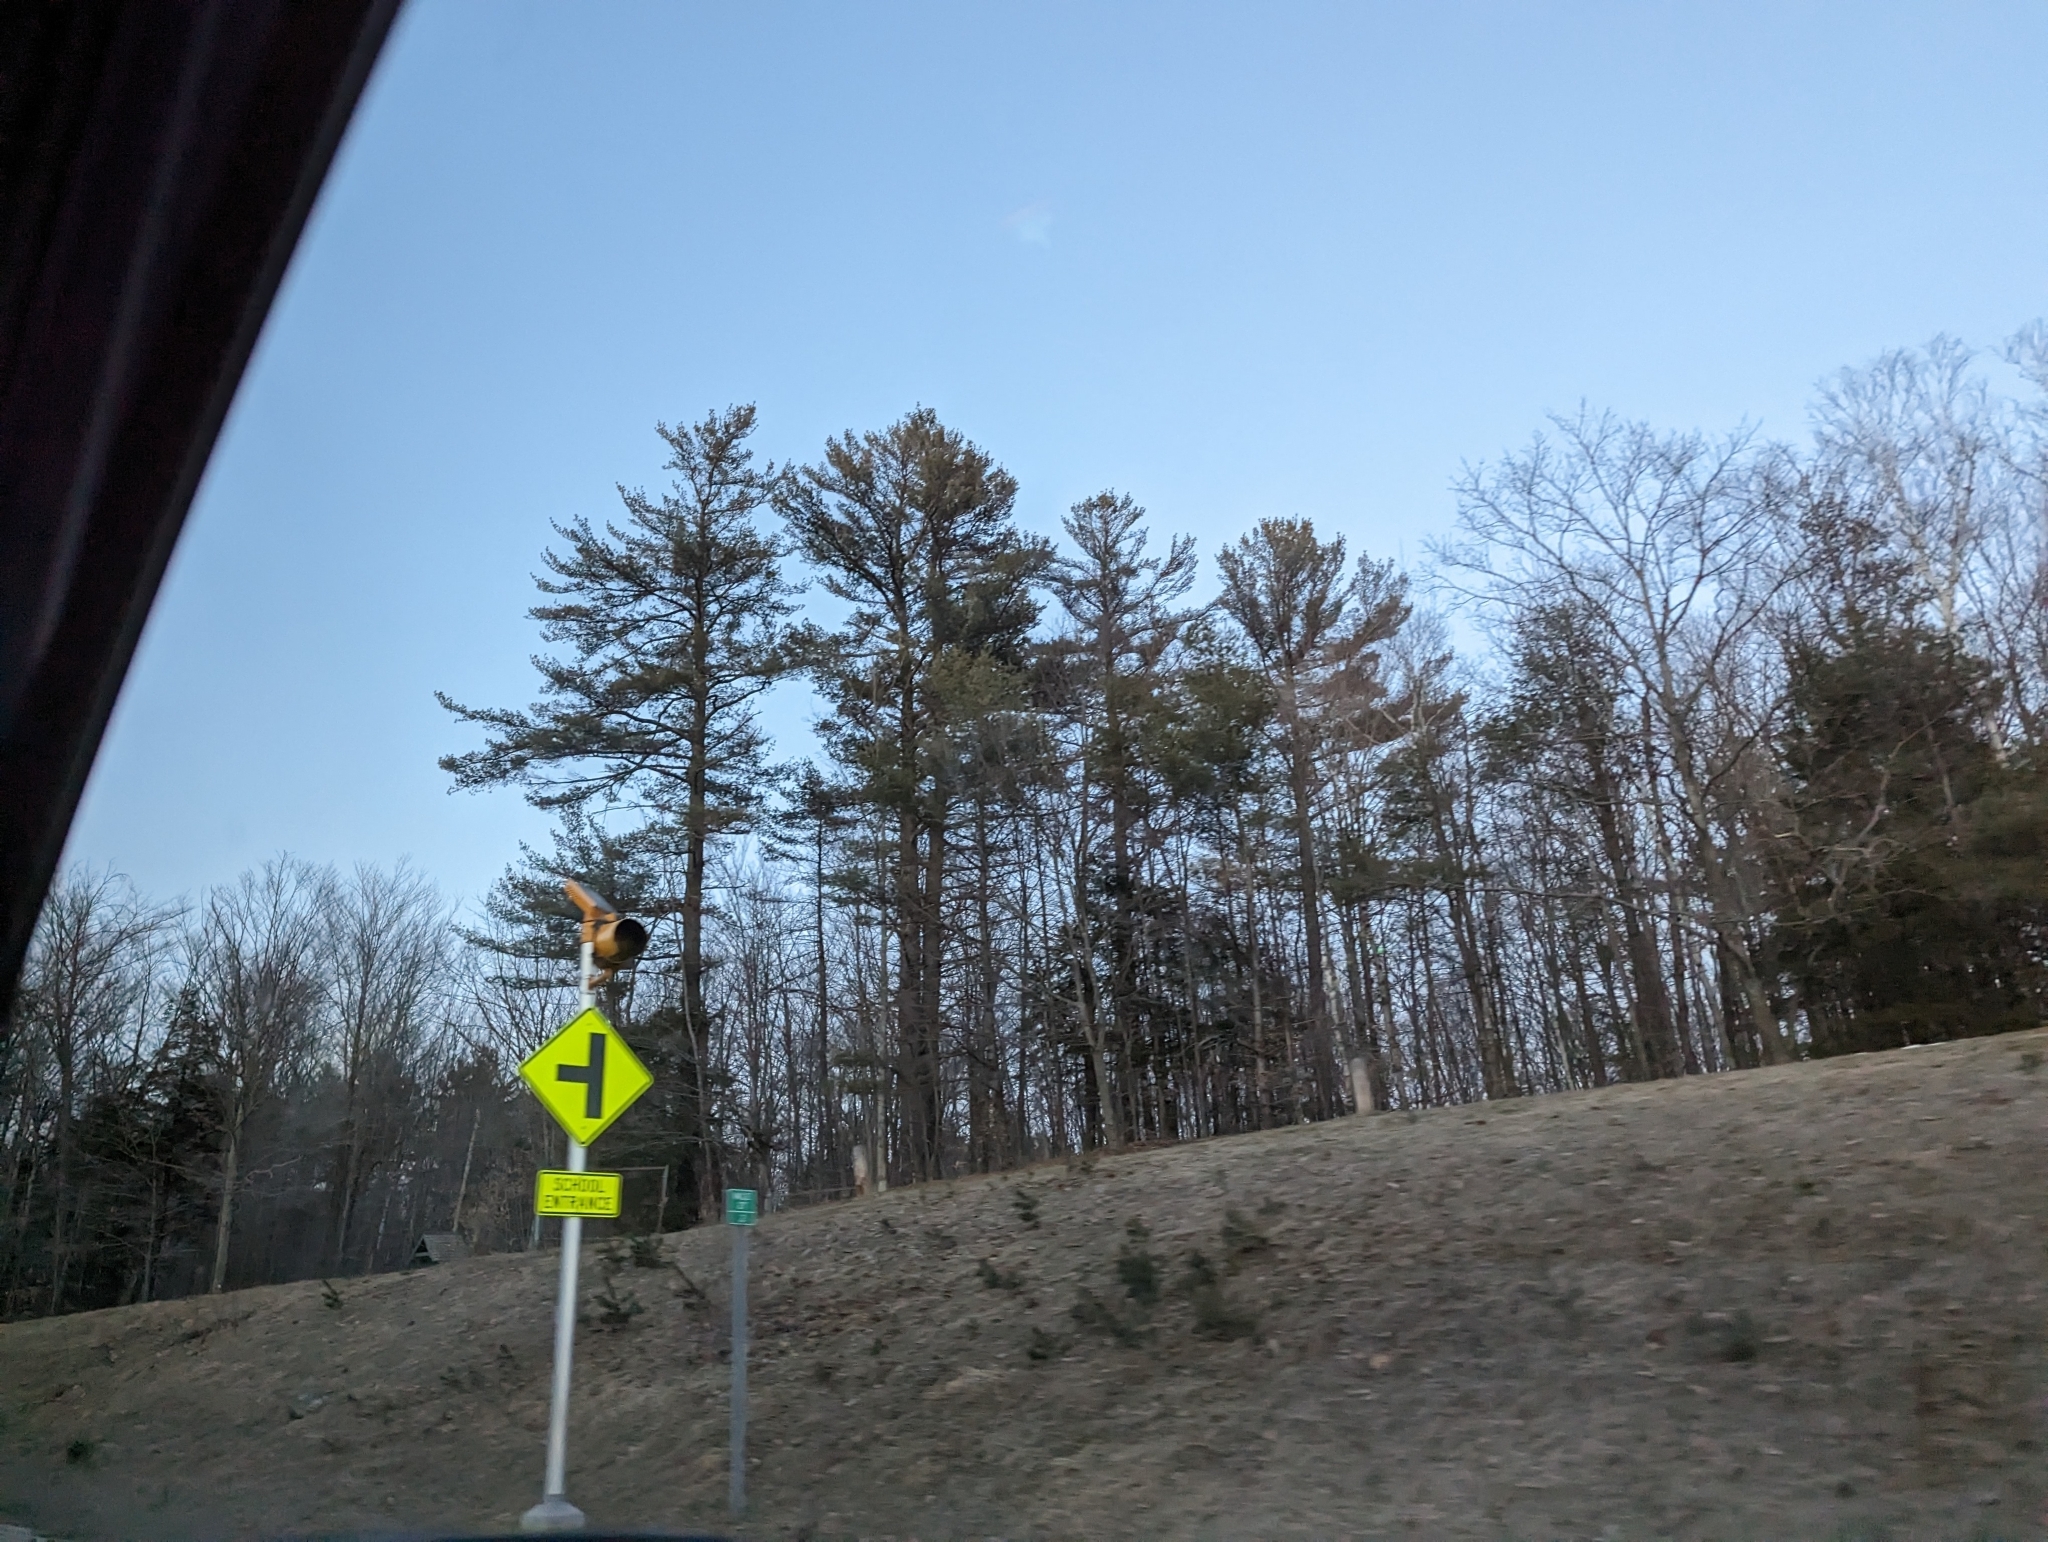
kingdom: Plantae
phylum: Tracheophyta
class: Pinopsida
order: Pinales
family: Pinaceae
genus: Pinus
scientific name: Pinus strobus
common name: Weymouth pine
